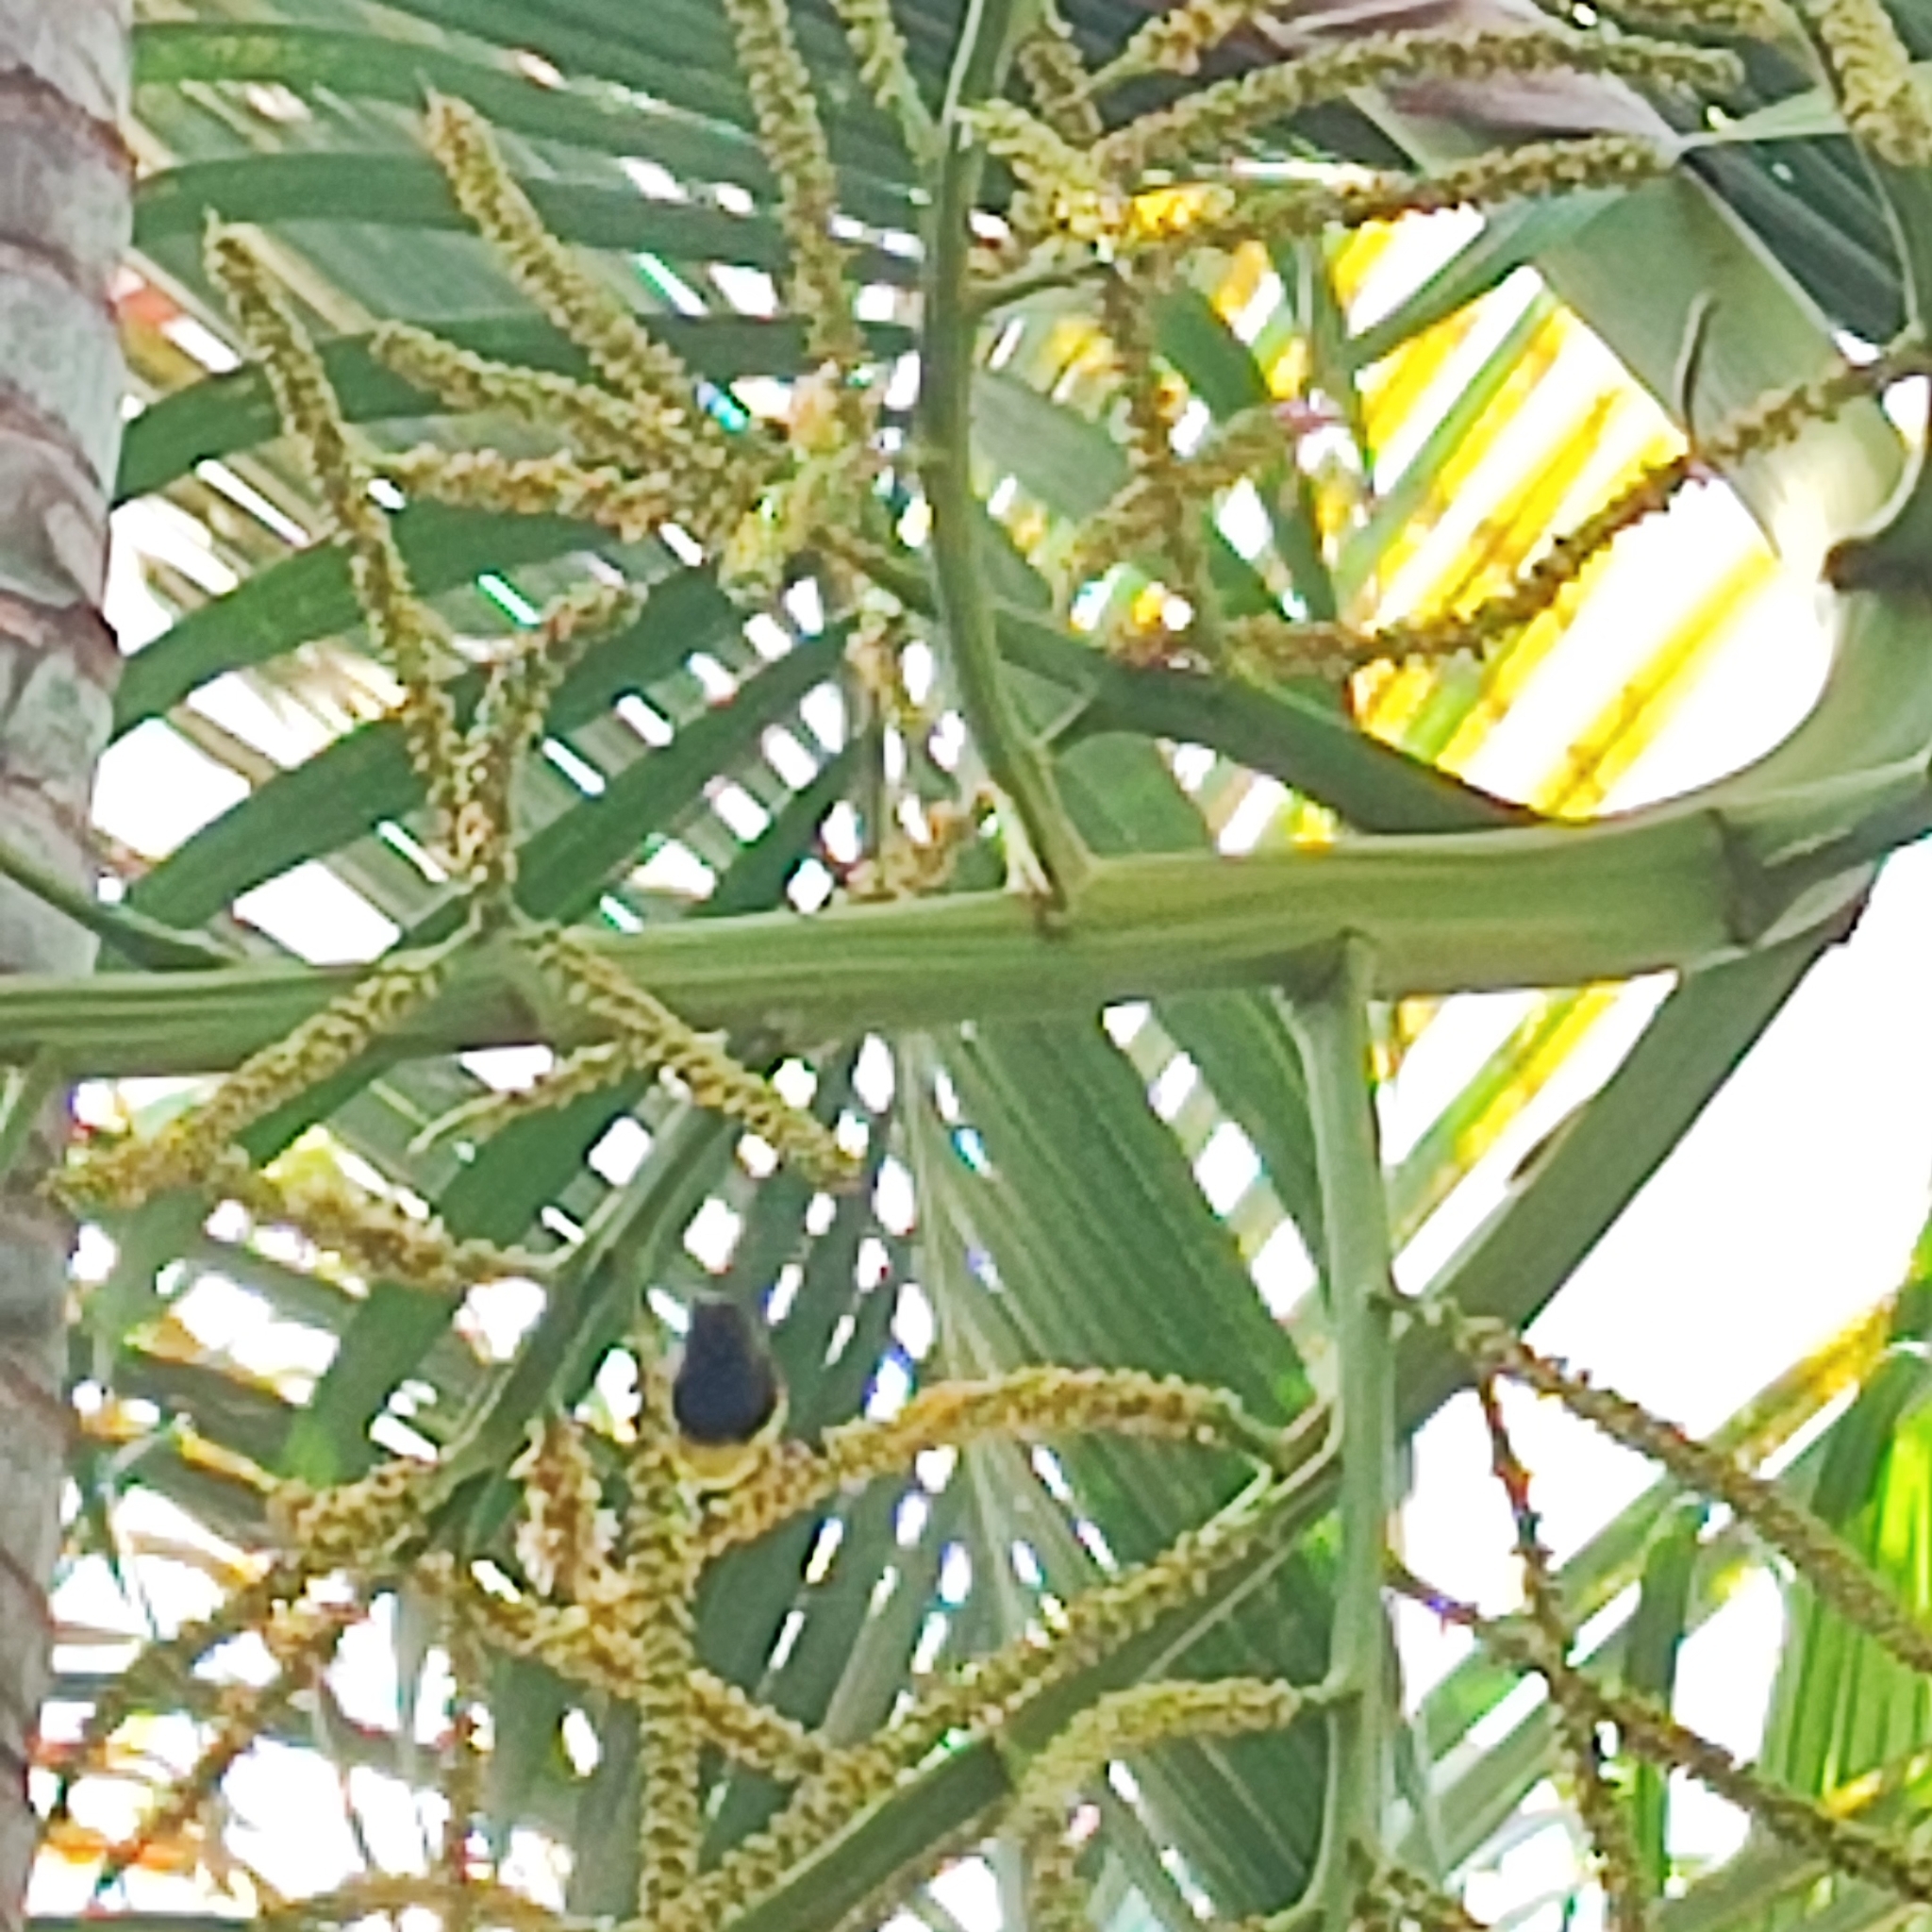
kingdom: Animalia
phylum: Chordata
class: Aves
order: Passeriformes
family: Nectariniidae
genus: Cinnyris
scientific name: Cinnyris
